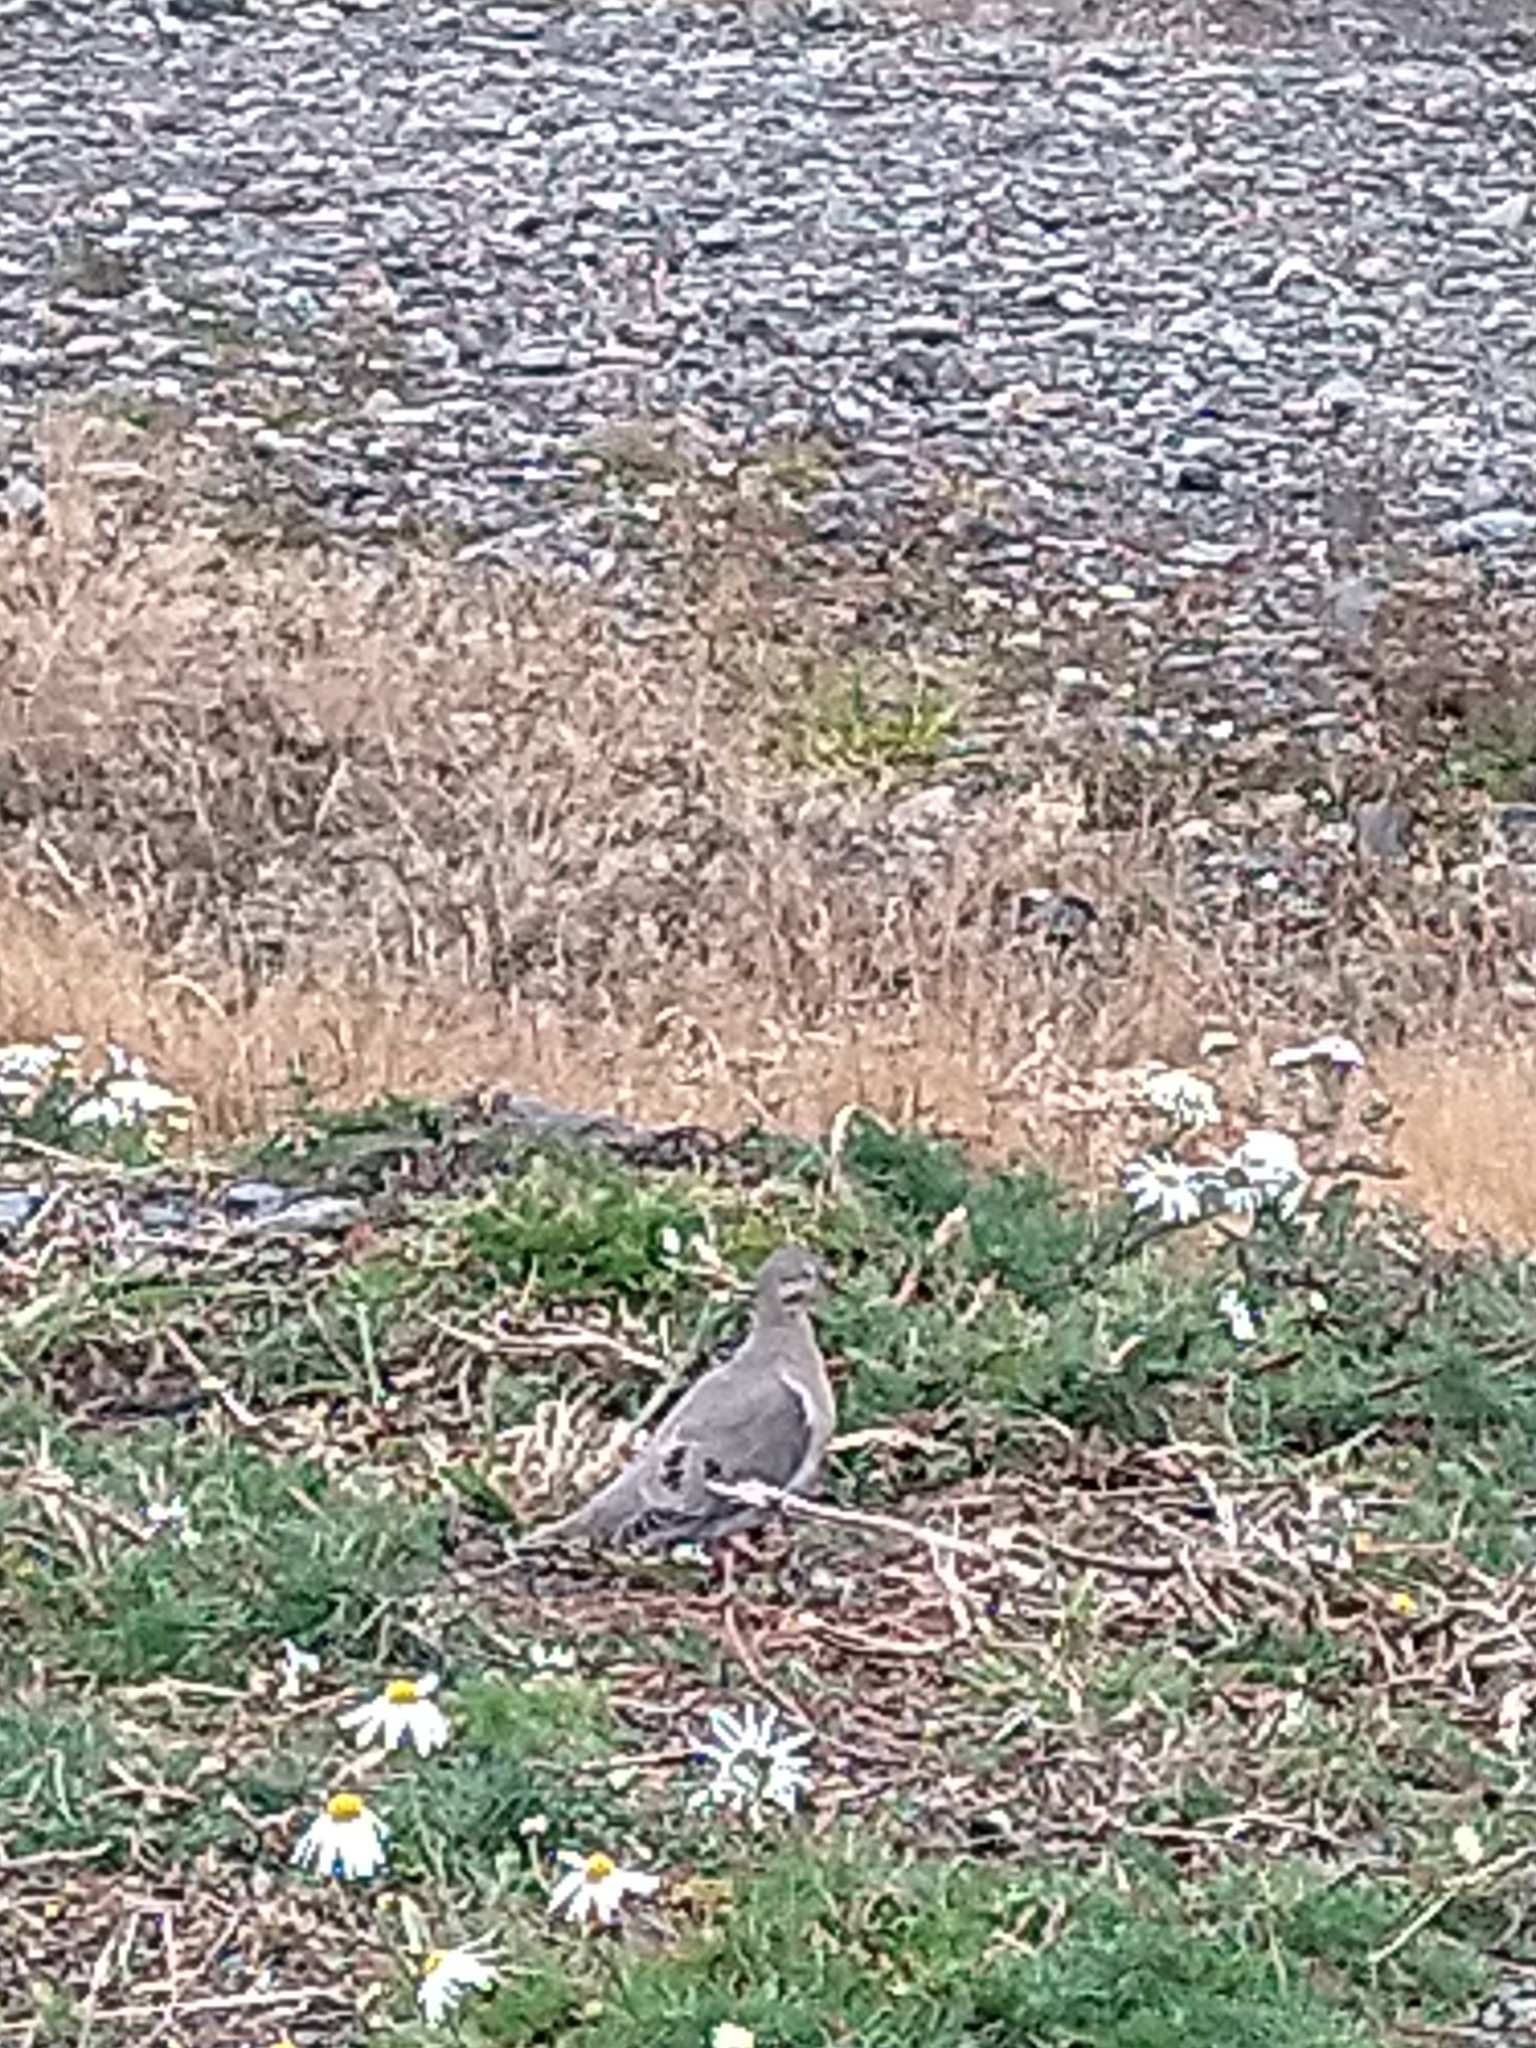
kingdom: Animalia
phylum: Chordata
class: Aves
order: Columbiformes
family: Columbidae
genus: Zenaida
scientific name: Zenaida auriculata
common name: Eared dove
